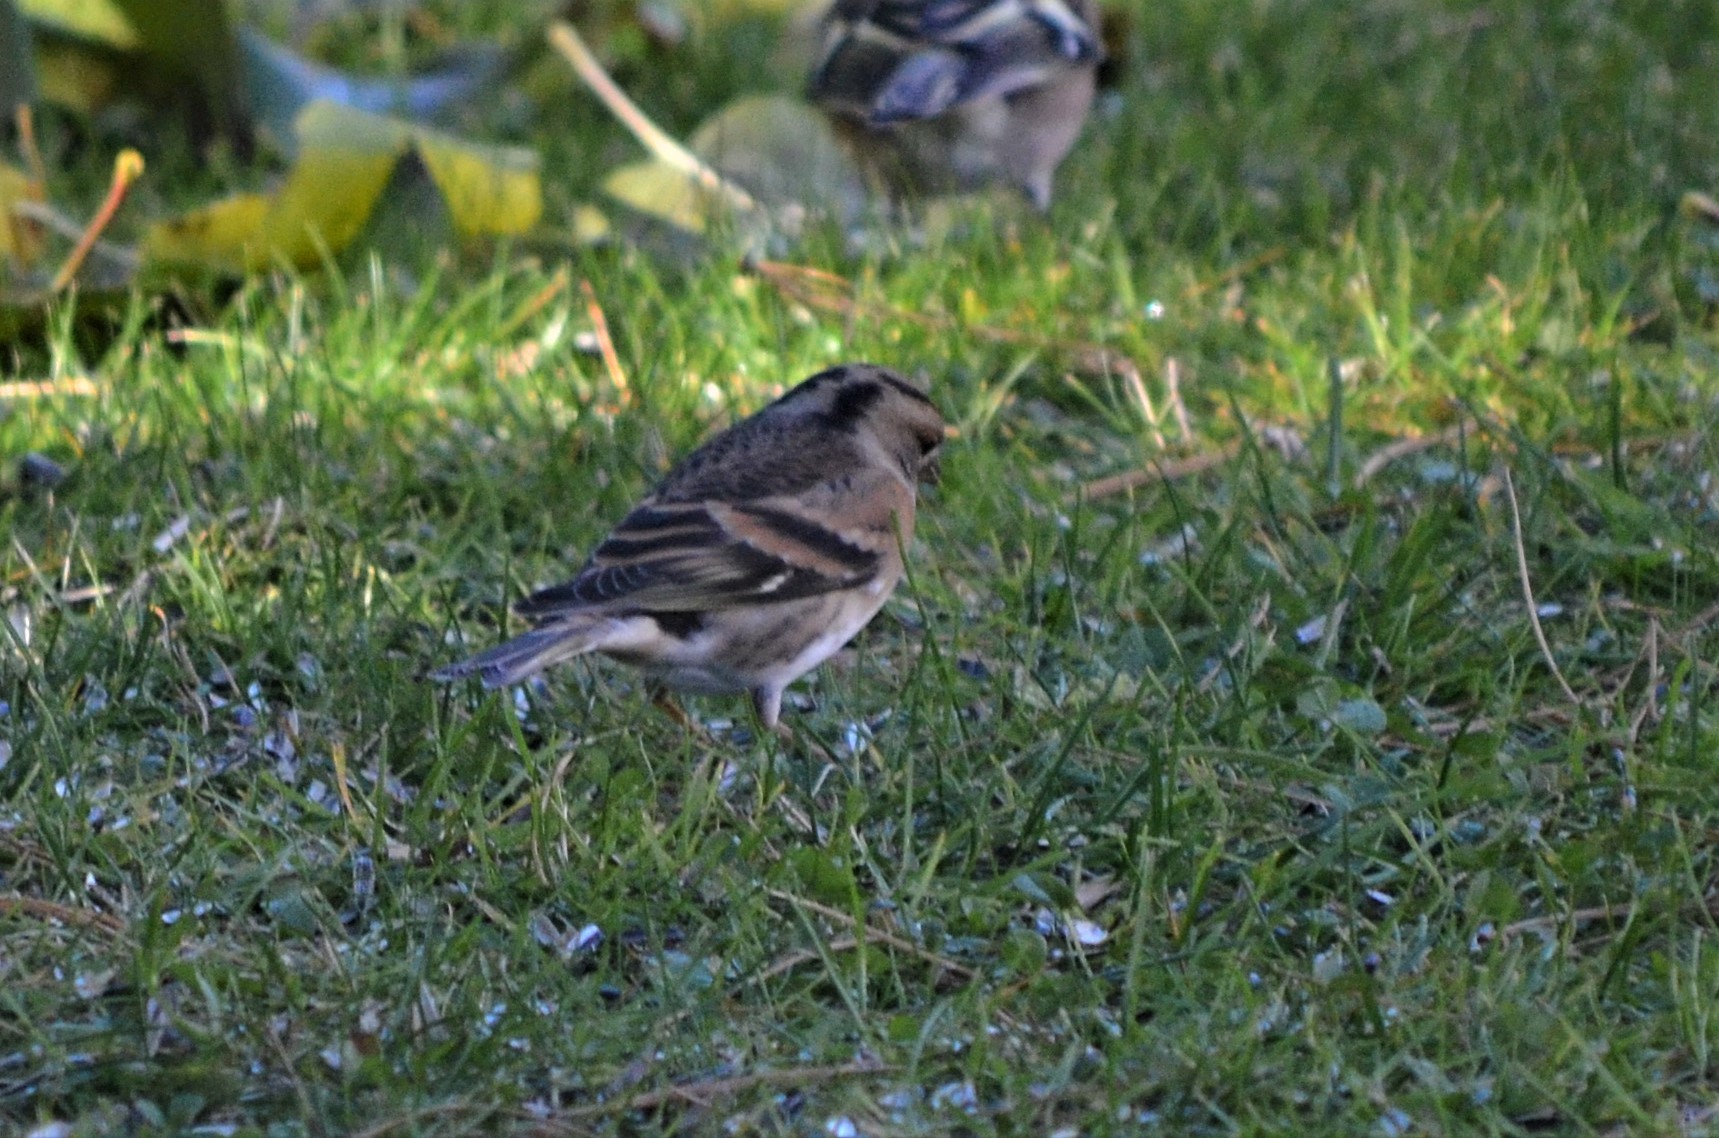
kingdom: Animalia
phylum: Chordata
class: Aves
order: Passeriformes
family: Fringillidae
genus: Fringilla
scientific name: Fringilla montifringilla
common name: Brambling
